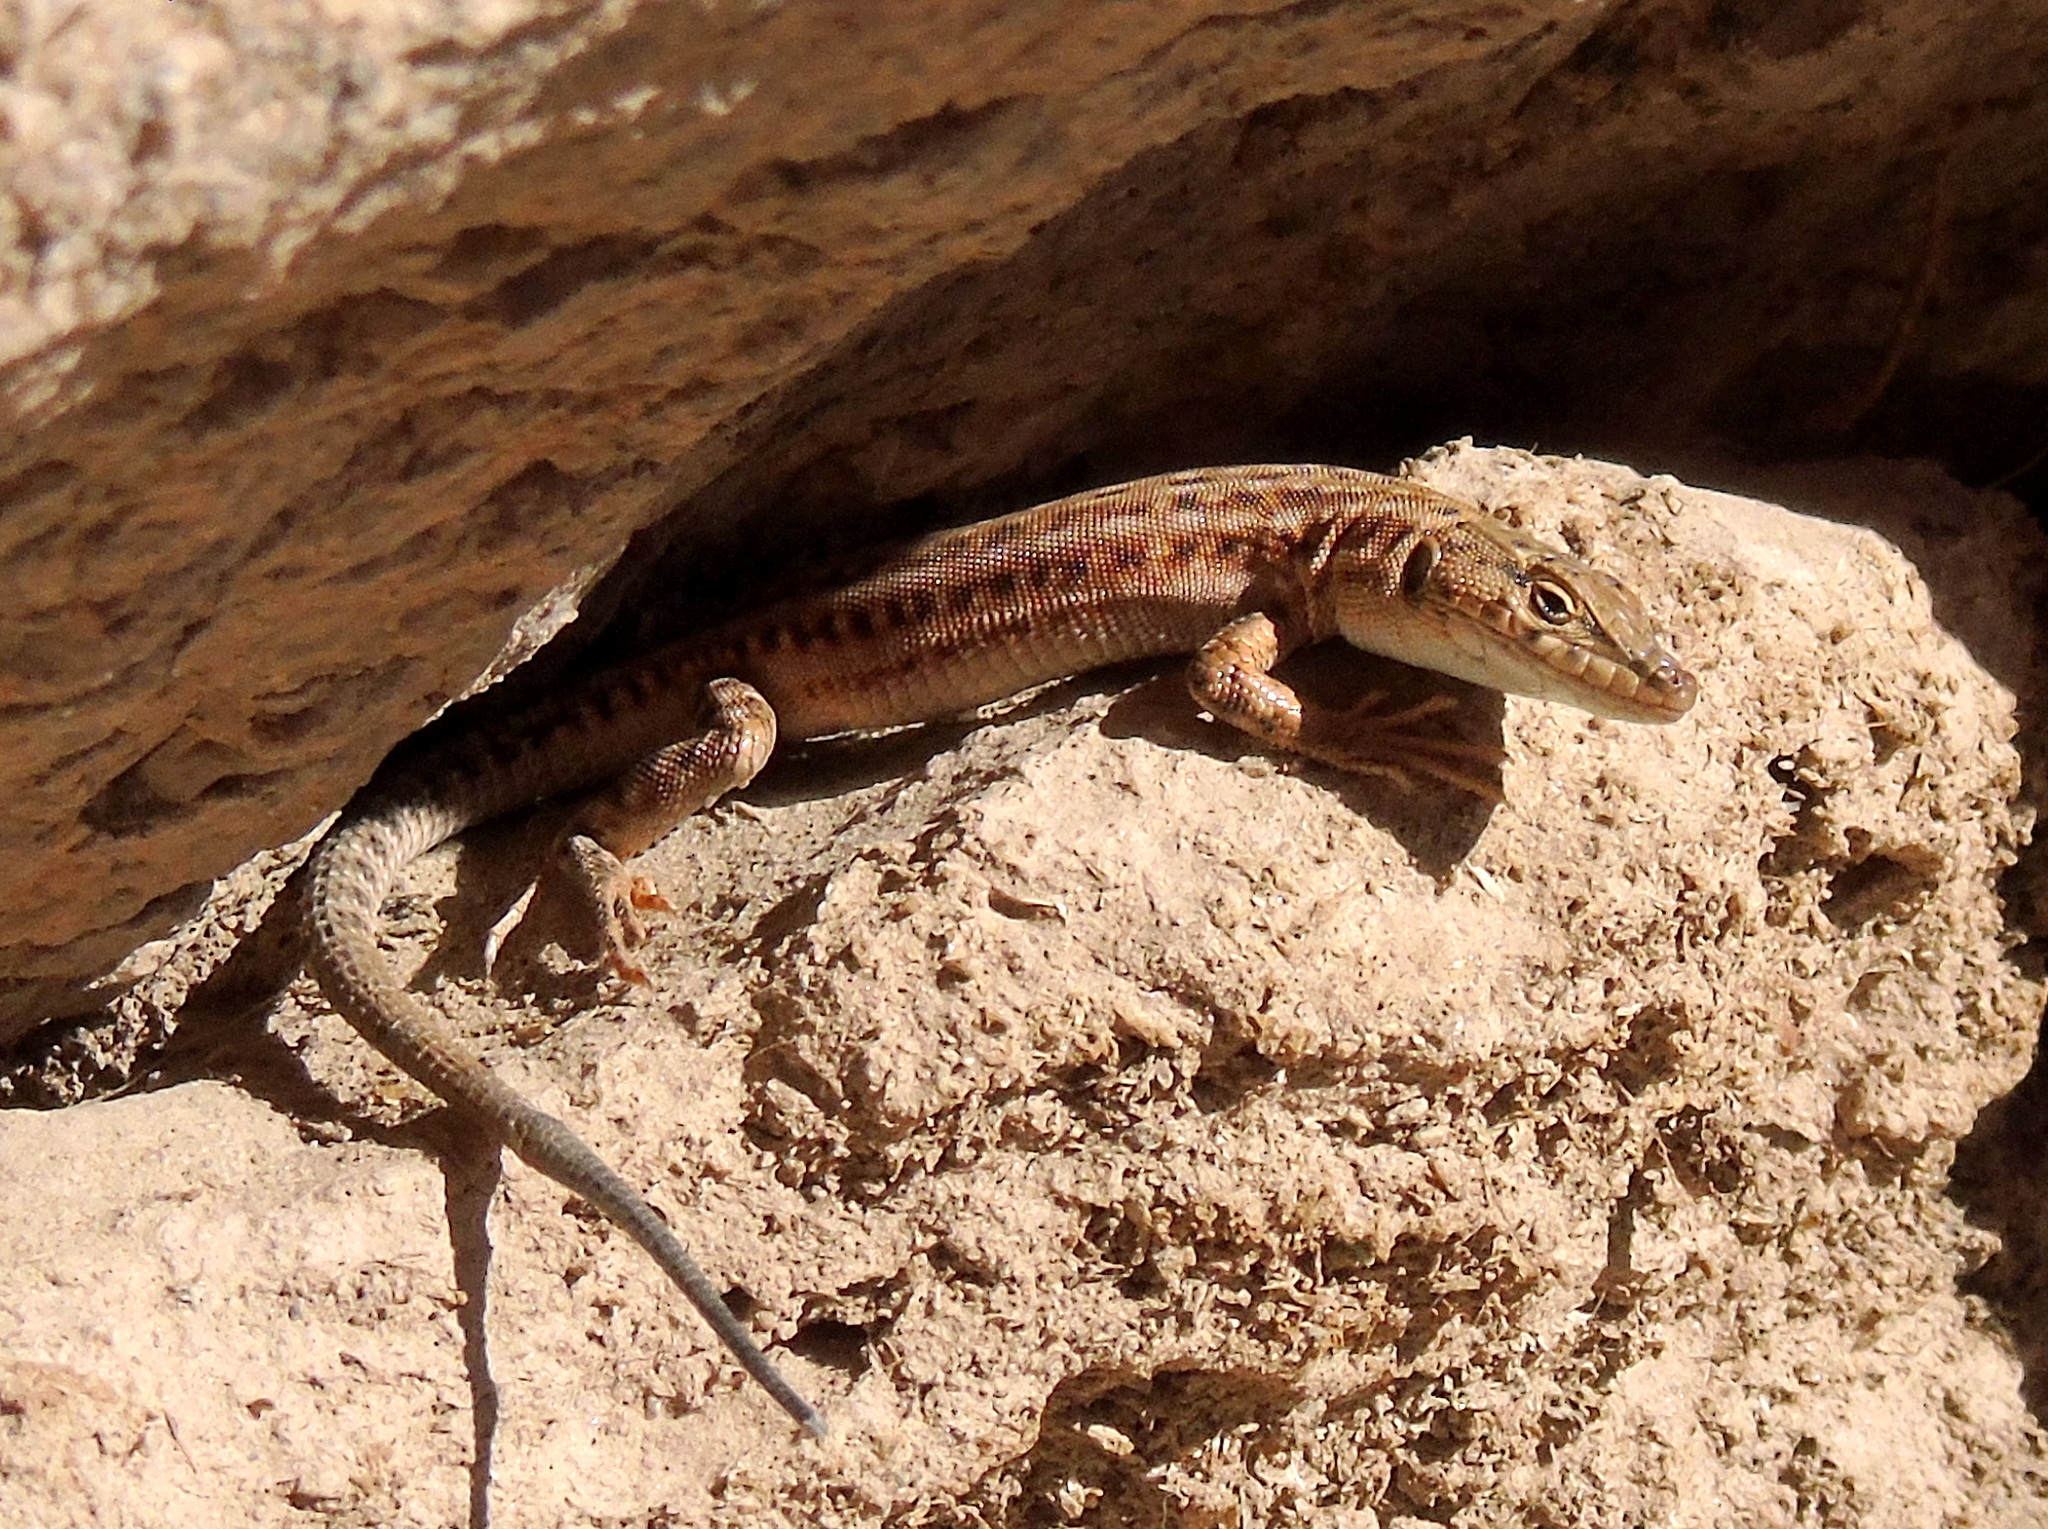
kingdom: Animalia
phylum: Chordata
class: Squamata
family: Lacertidae
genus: Mesalina
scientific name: Mesalina bahaeldini
